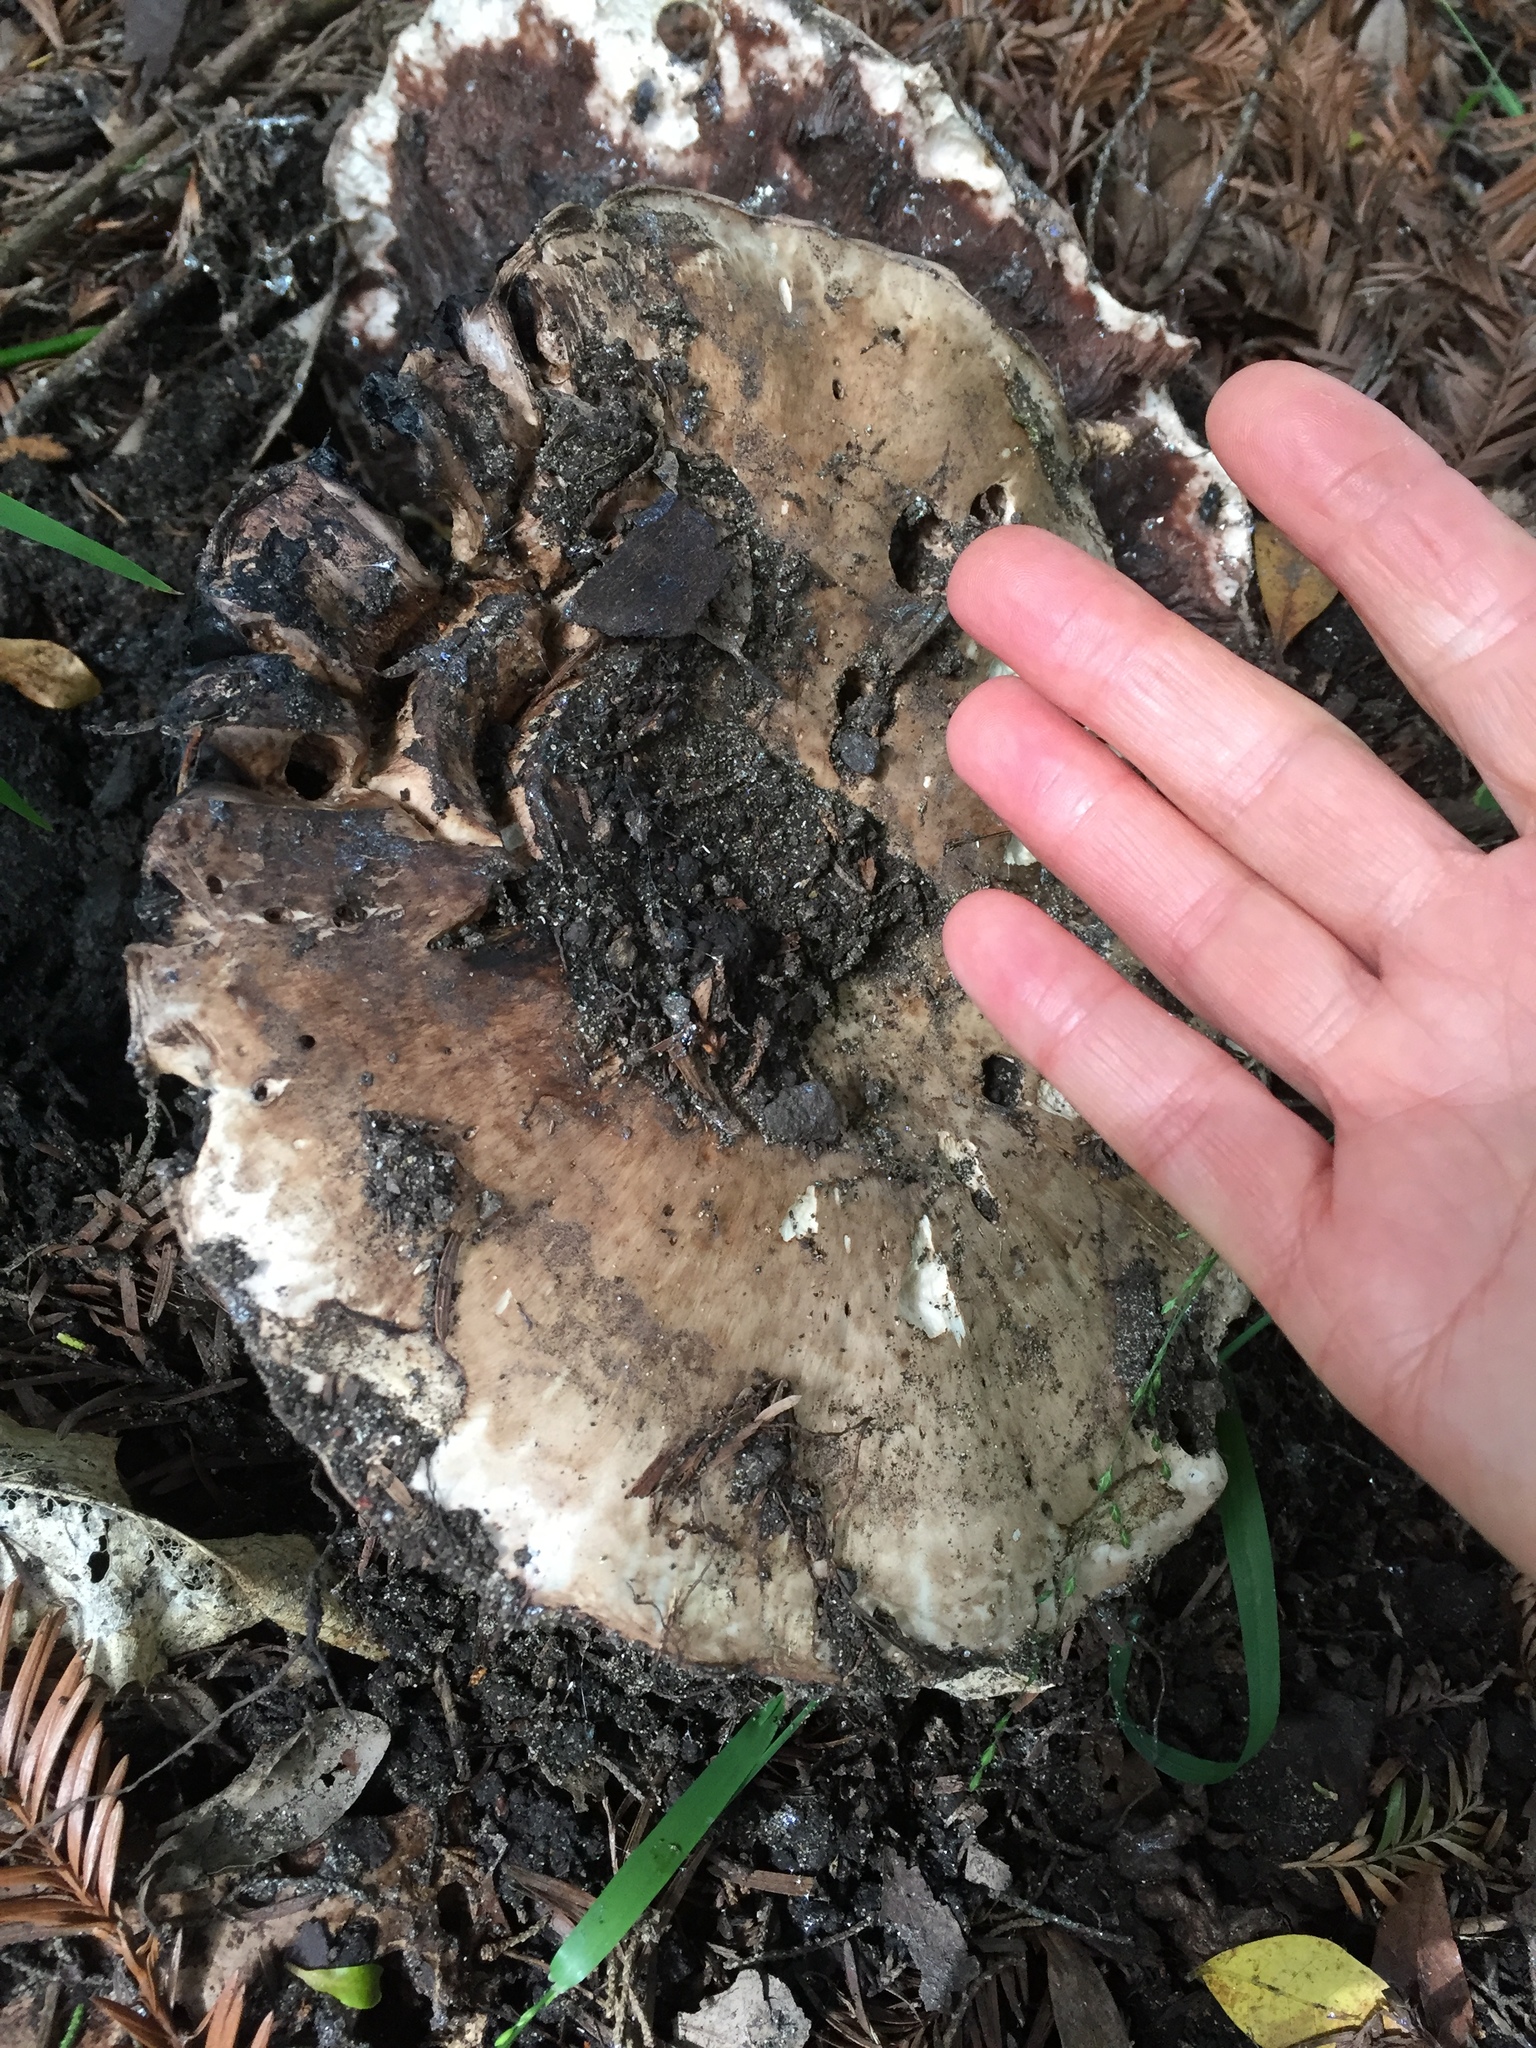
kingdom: Fungi
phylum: Basidiomycota
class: Agaricomycetes
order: Agaricales
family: Agaricaceae
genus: Agaricus
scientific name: Agaricus lilaceps
